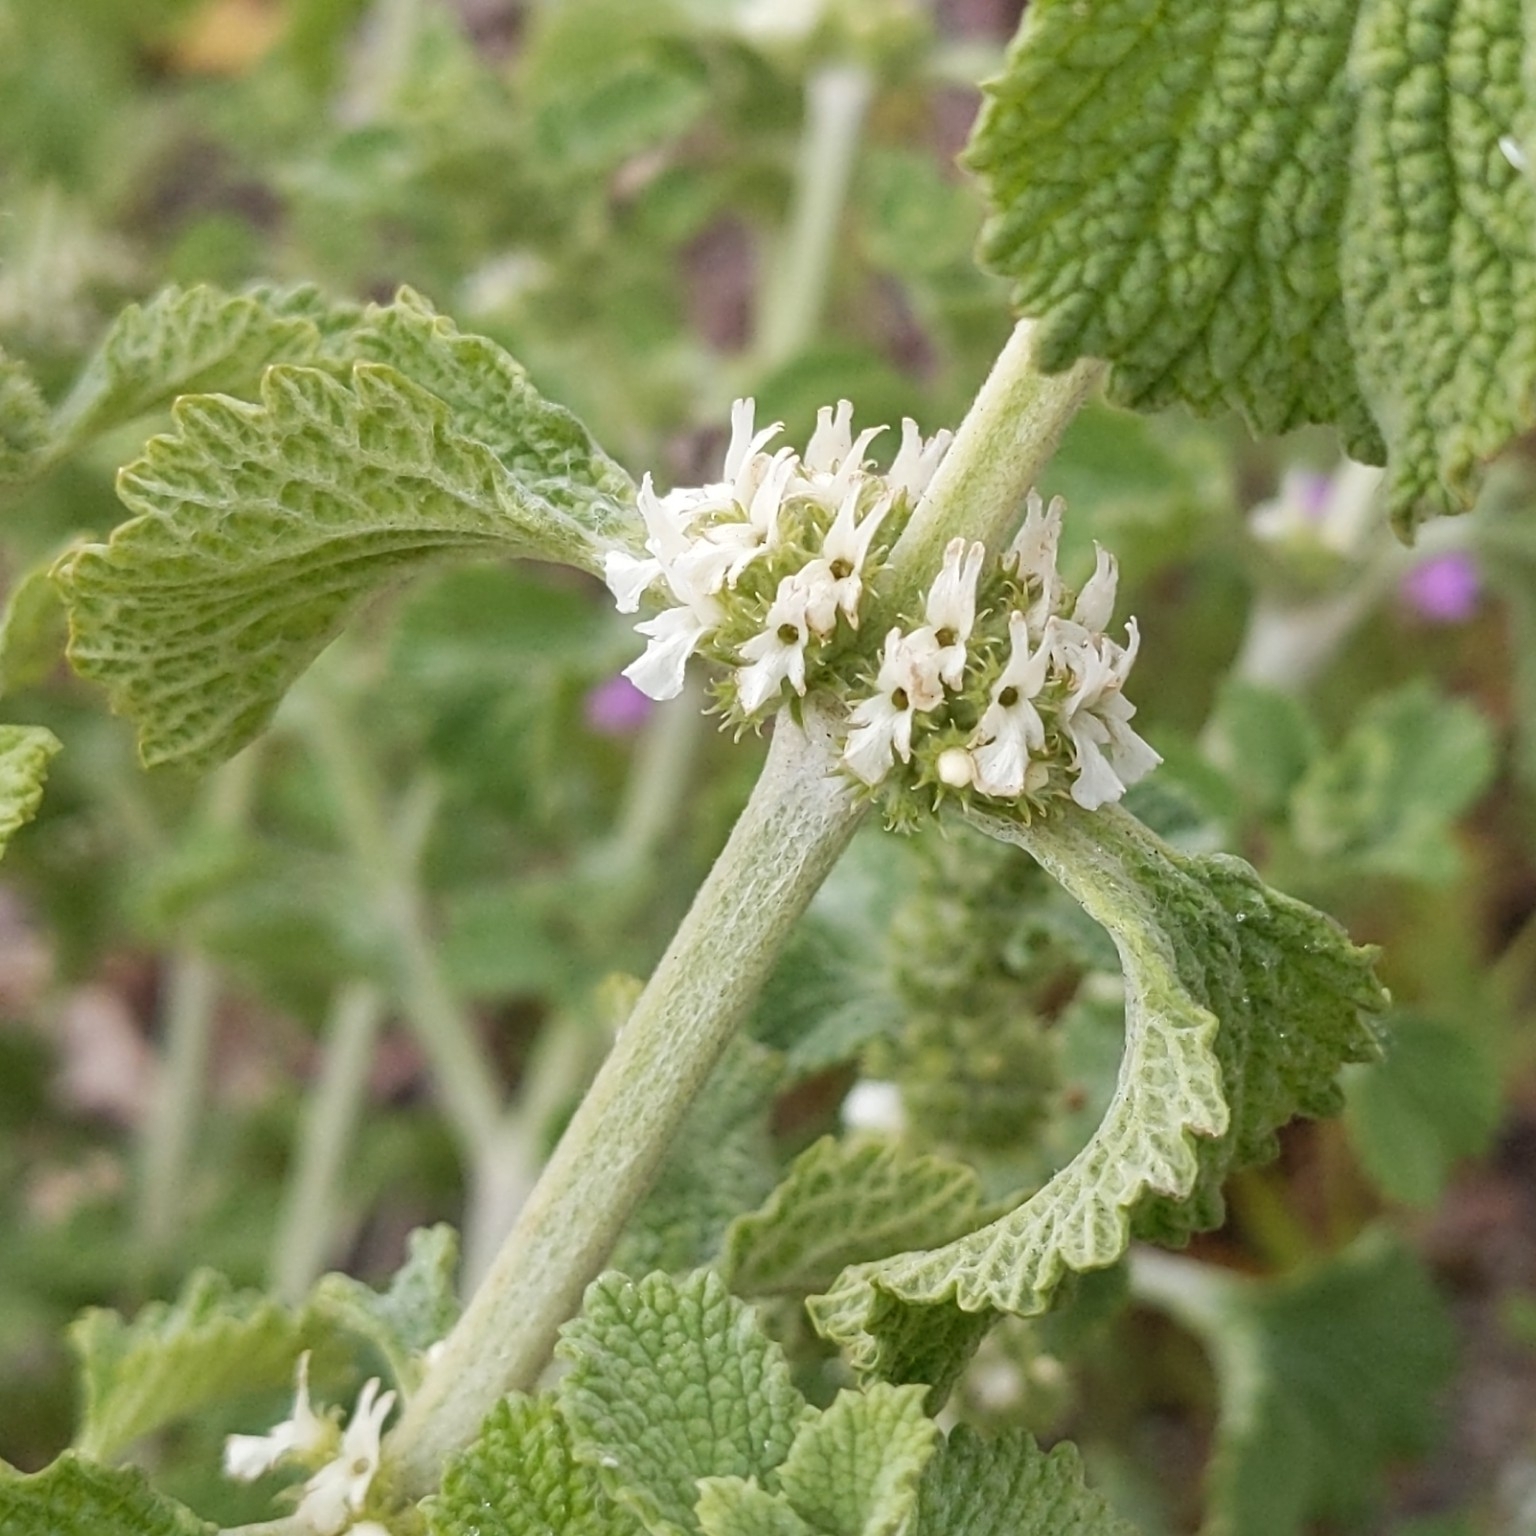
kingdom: Plantae
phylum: Tracheophyta
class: Magnoliopsida
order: Lamiales
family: Lamiaceae
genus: Marrubium
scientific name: Marrubium vulgare
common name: Horehound
